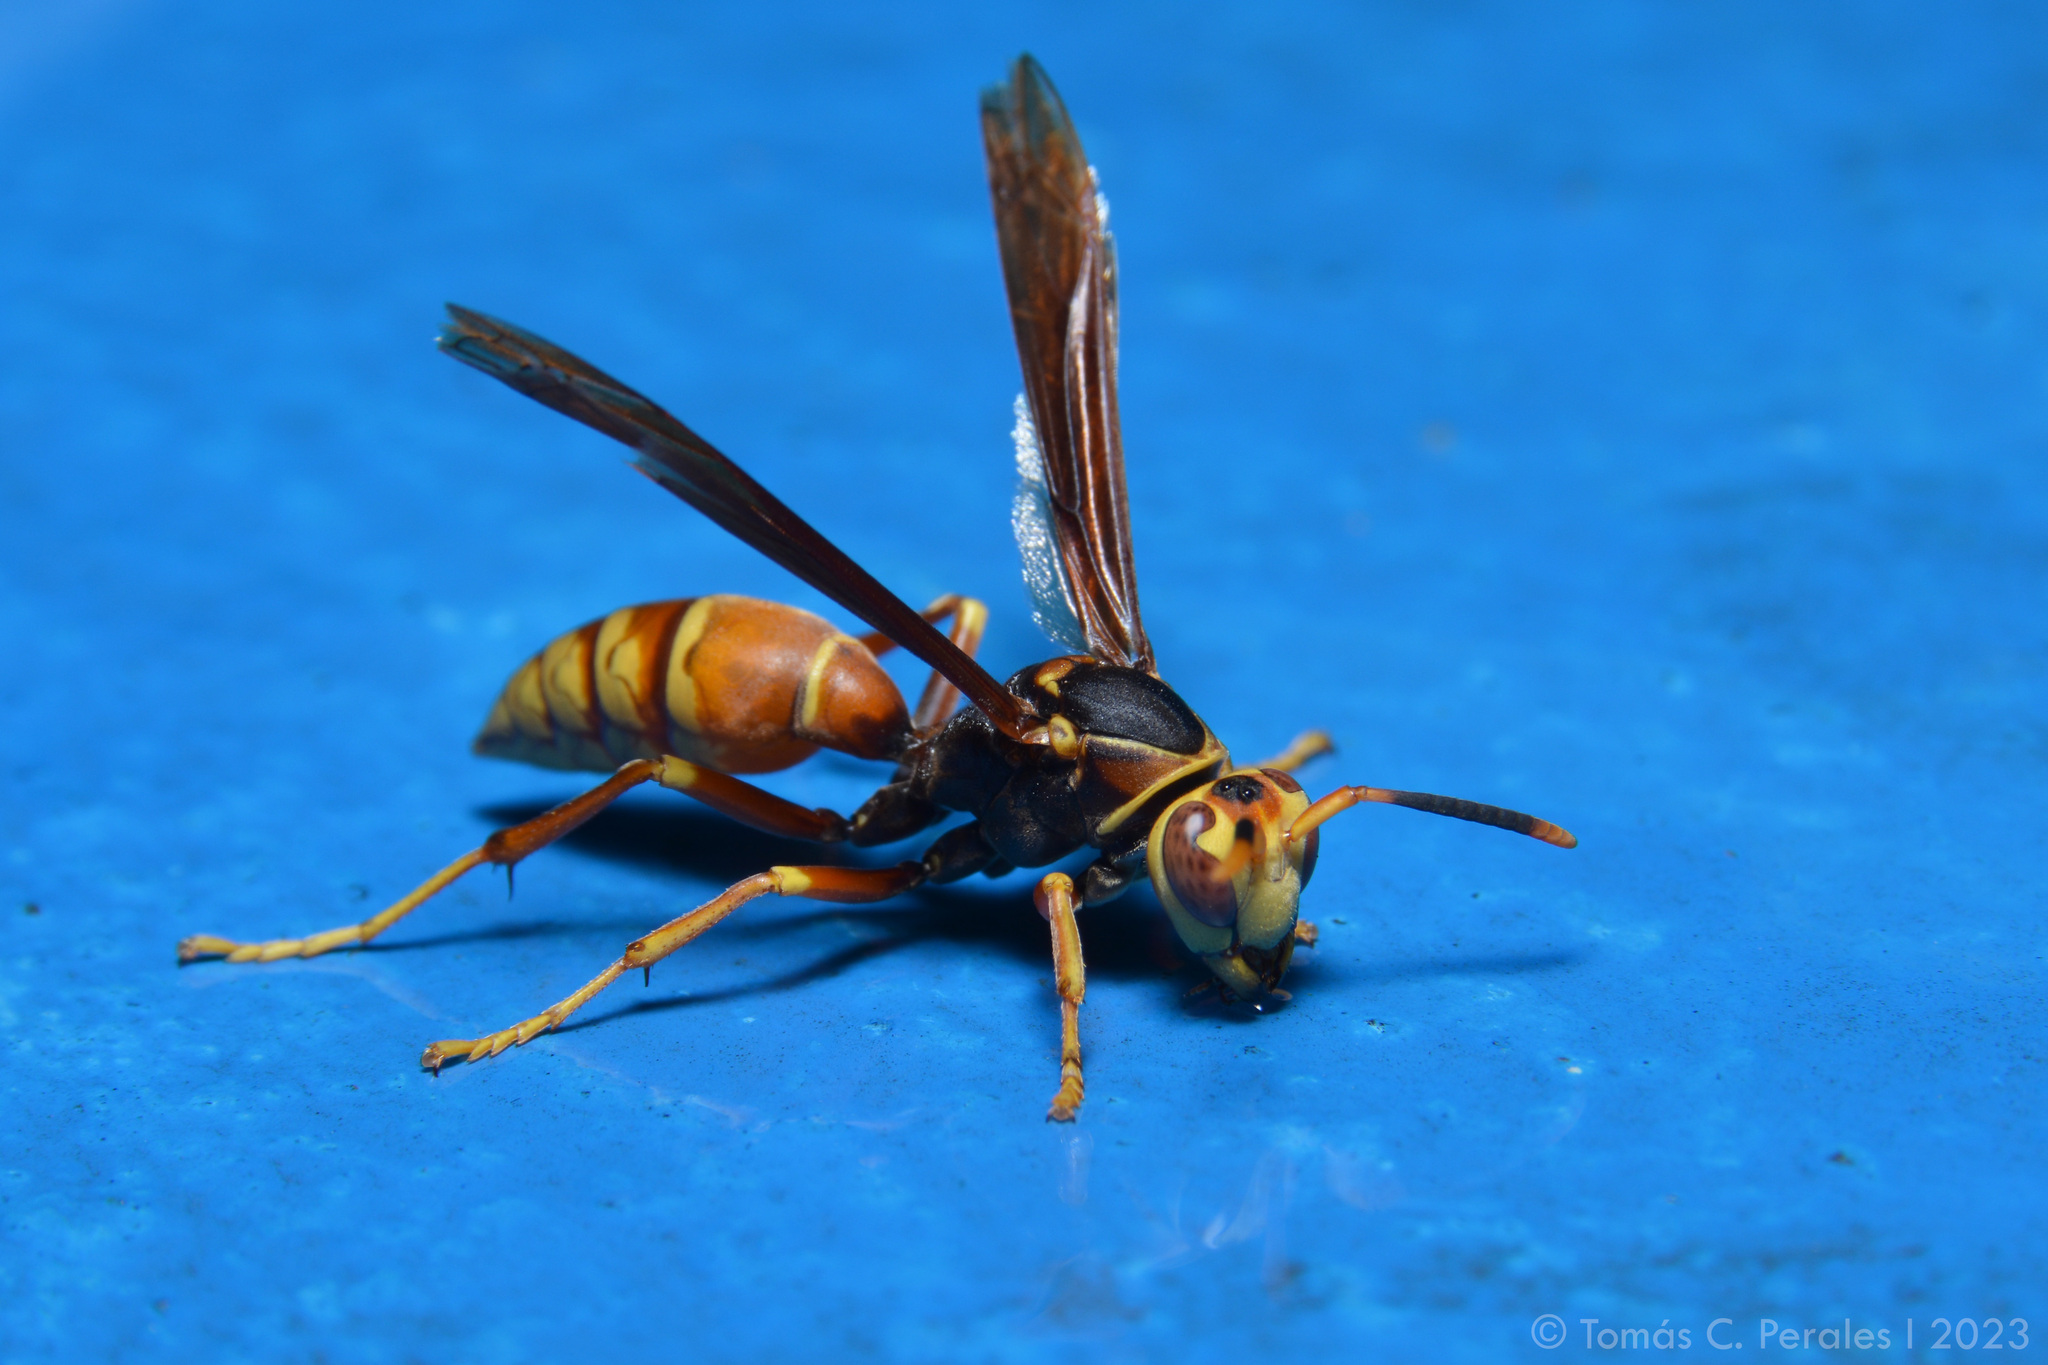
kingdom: Animalia
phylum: Arthropoda
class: Insecta
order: Hymenoptera
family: Eumenidae
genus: Polistes
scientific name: Polistes buyssoni
